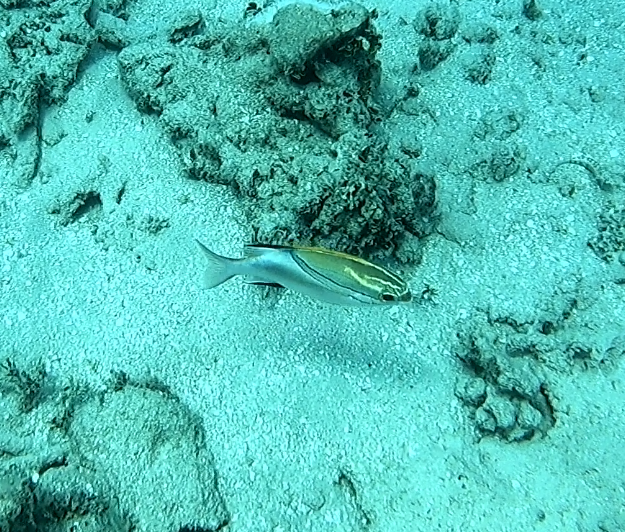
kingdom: Animalia
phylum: Chordata
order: Perciformes
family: Nemipteridae
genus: Scolopsis
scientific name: Scolopsis bilineata
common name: Two-lined monocle bream
